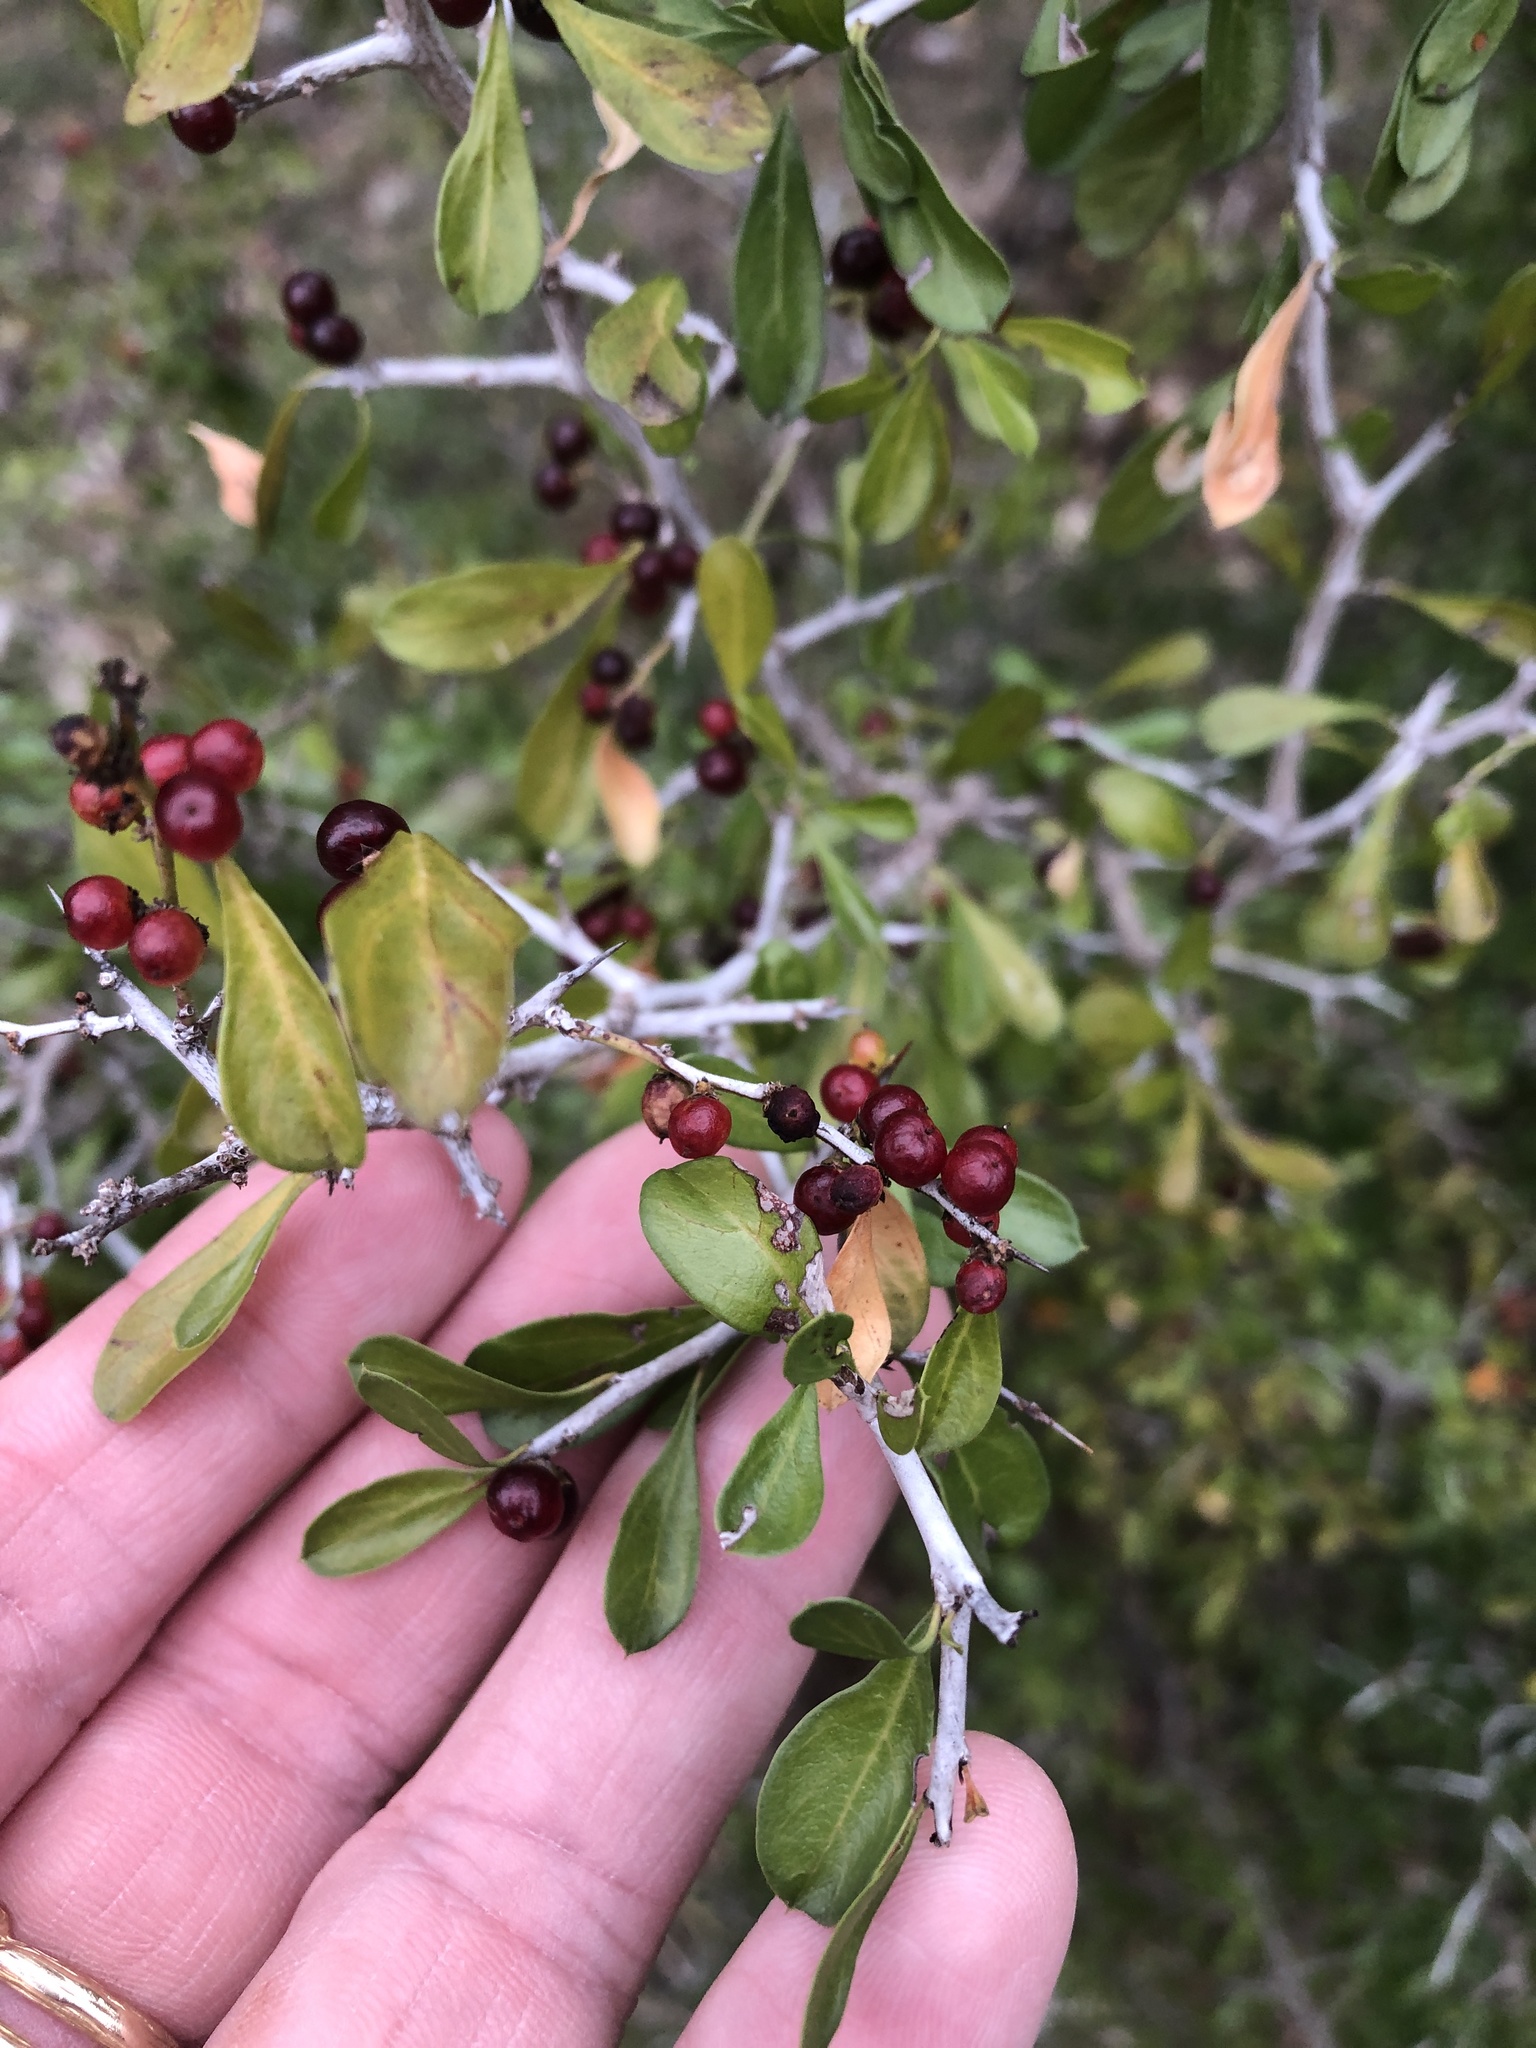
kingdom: Plantae
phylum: Tracheophyta
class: Magnoliopsida
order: Rosales
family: Rhamnaceae
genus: Condalia
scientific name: Condalia hookeri
